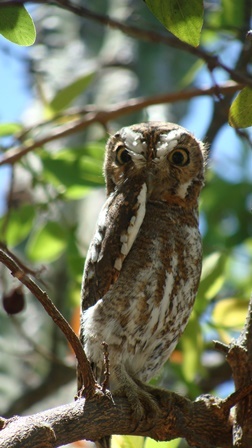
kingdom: Animalia
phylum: Chordata
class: Aves
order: Strigiformes
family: Strigidae
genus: Micrathene
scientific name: Micrathene whitneyi
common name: Elf owl
